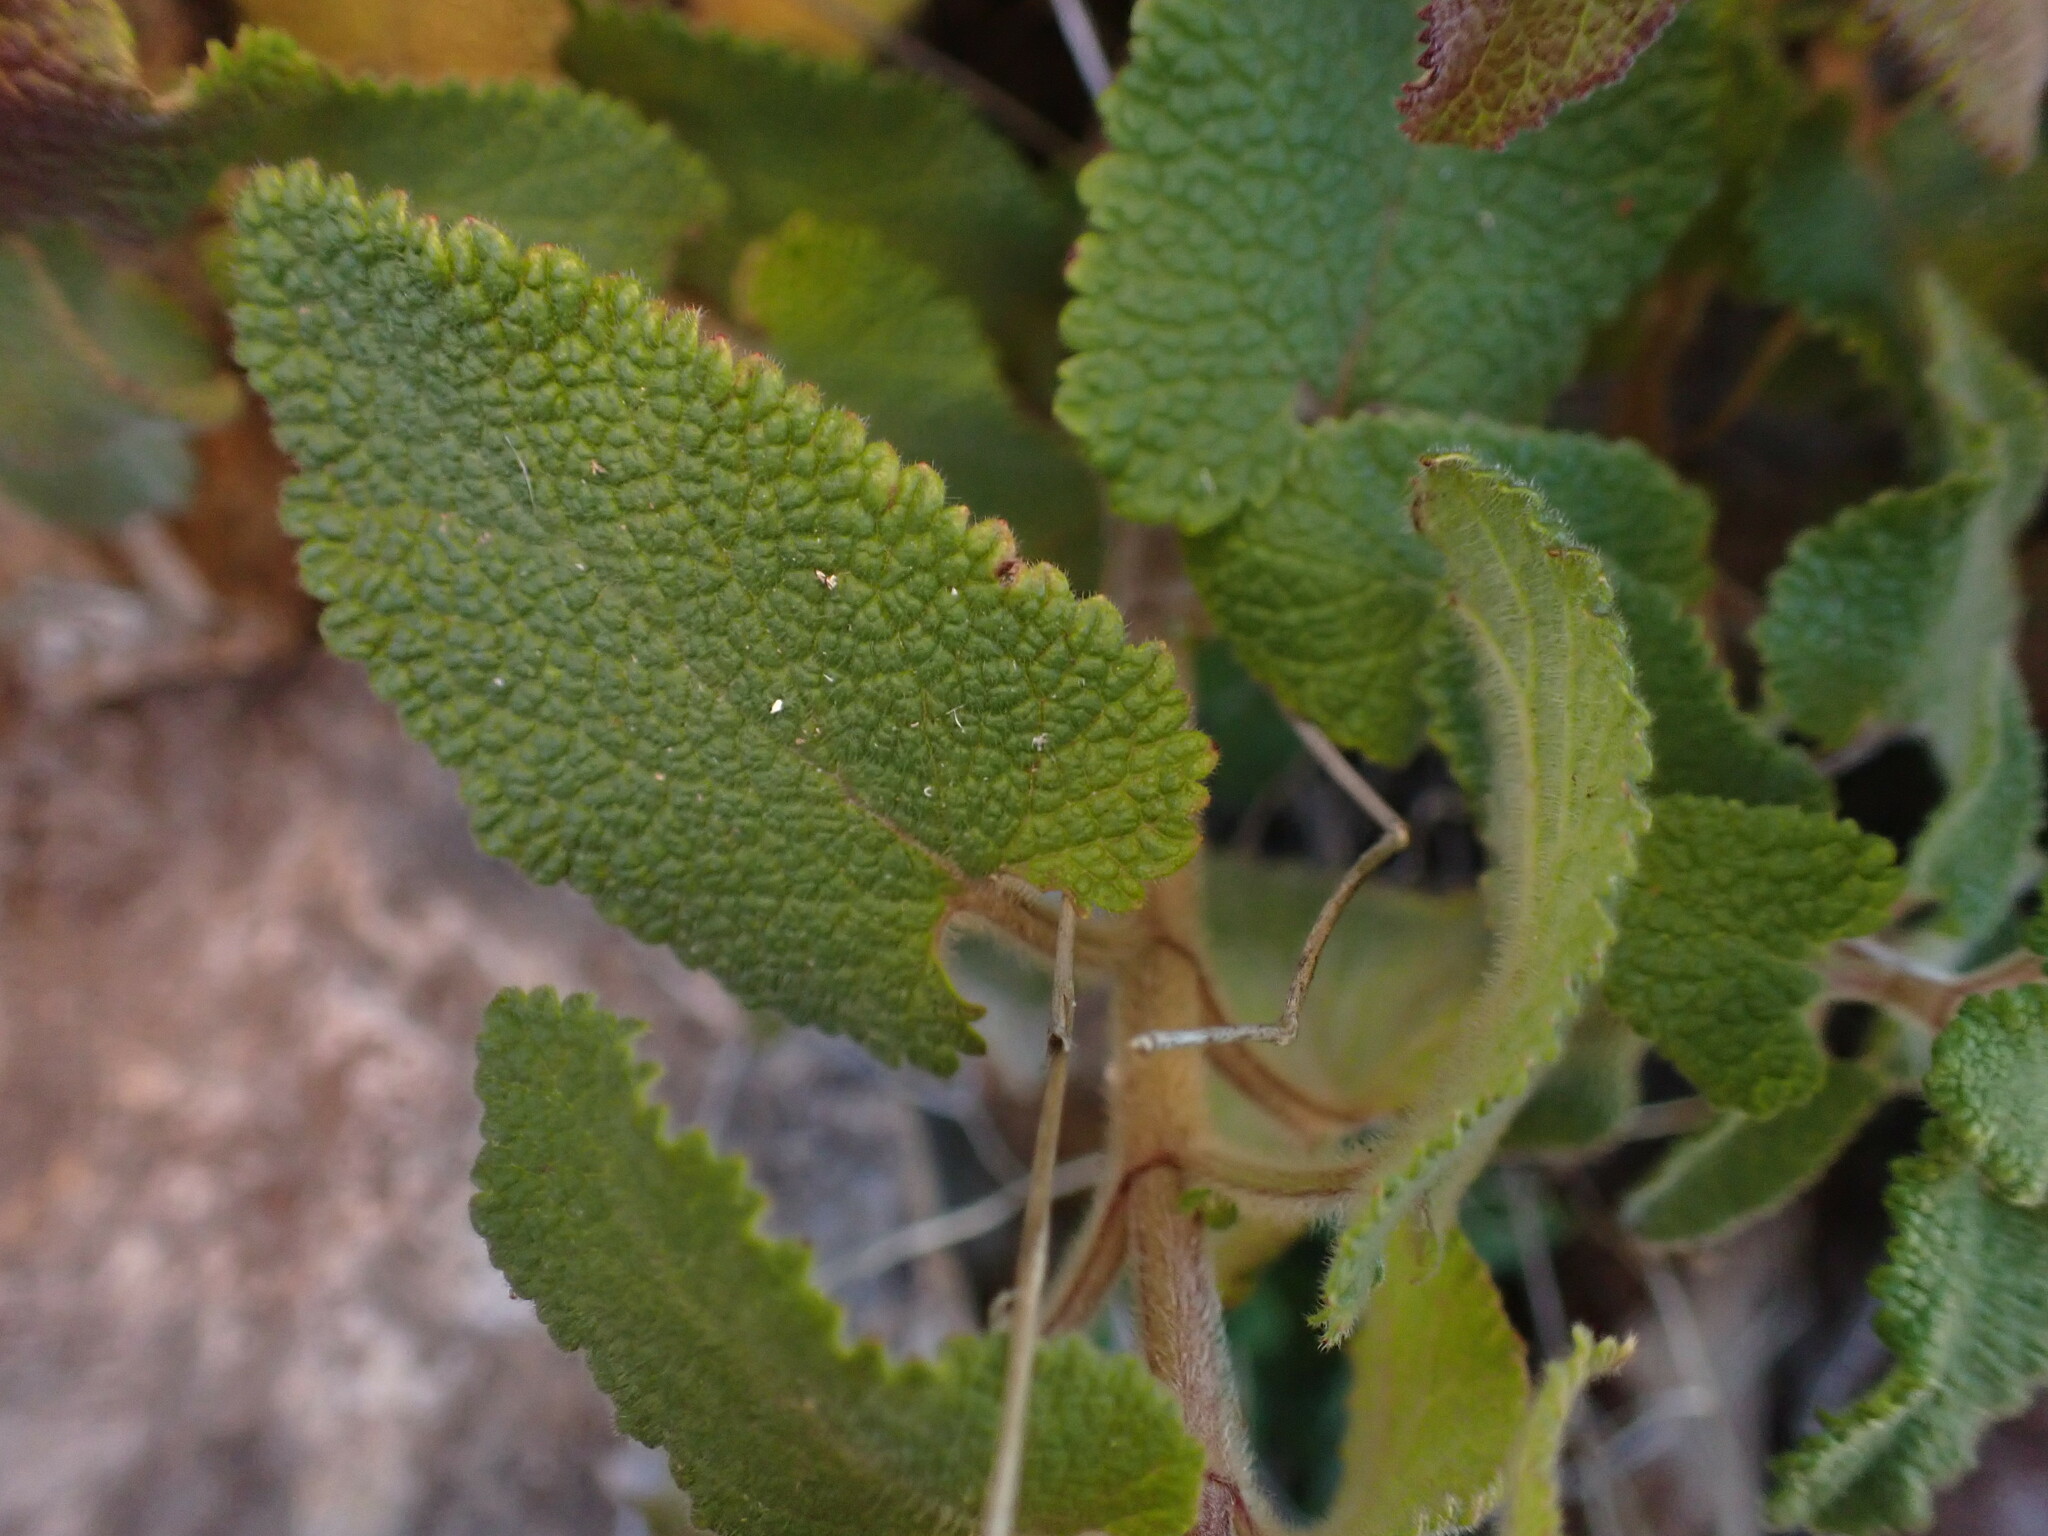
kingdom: Plantae
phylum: Tracheophyta
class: Magnoliopsida
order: Lamiales
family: Lamiaceae
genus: Teucrium
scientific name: Teucrium scorodonia
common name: Woodland germander
